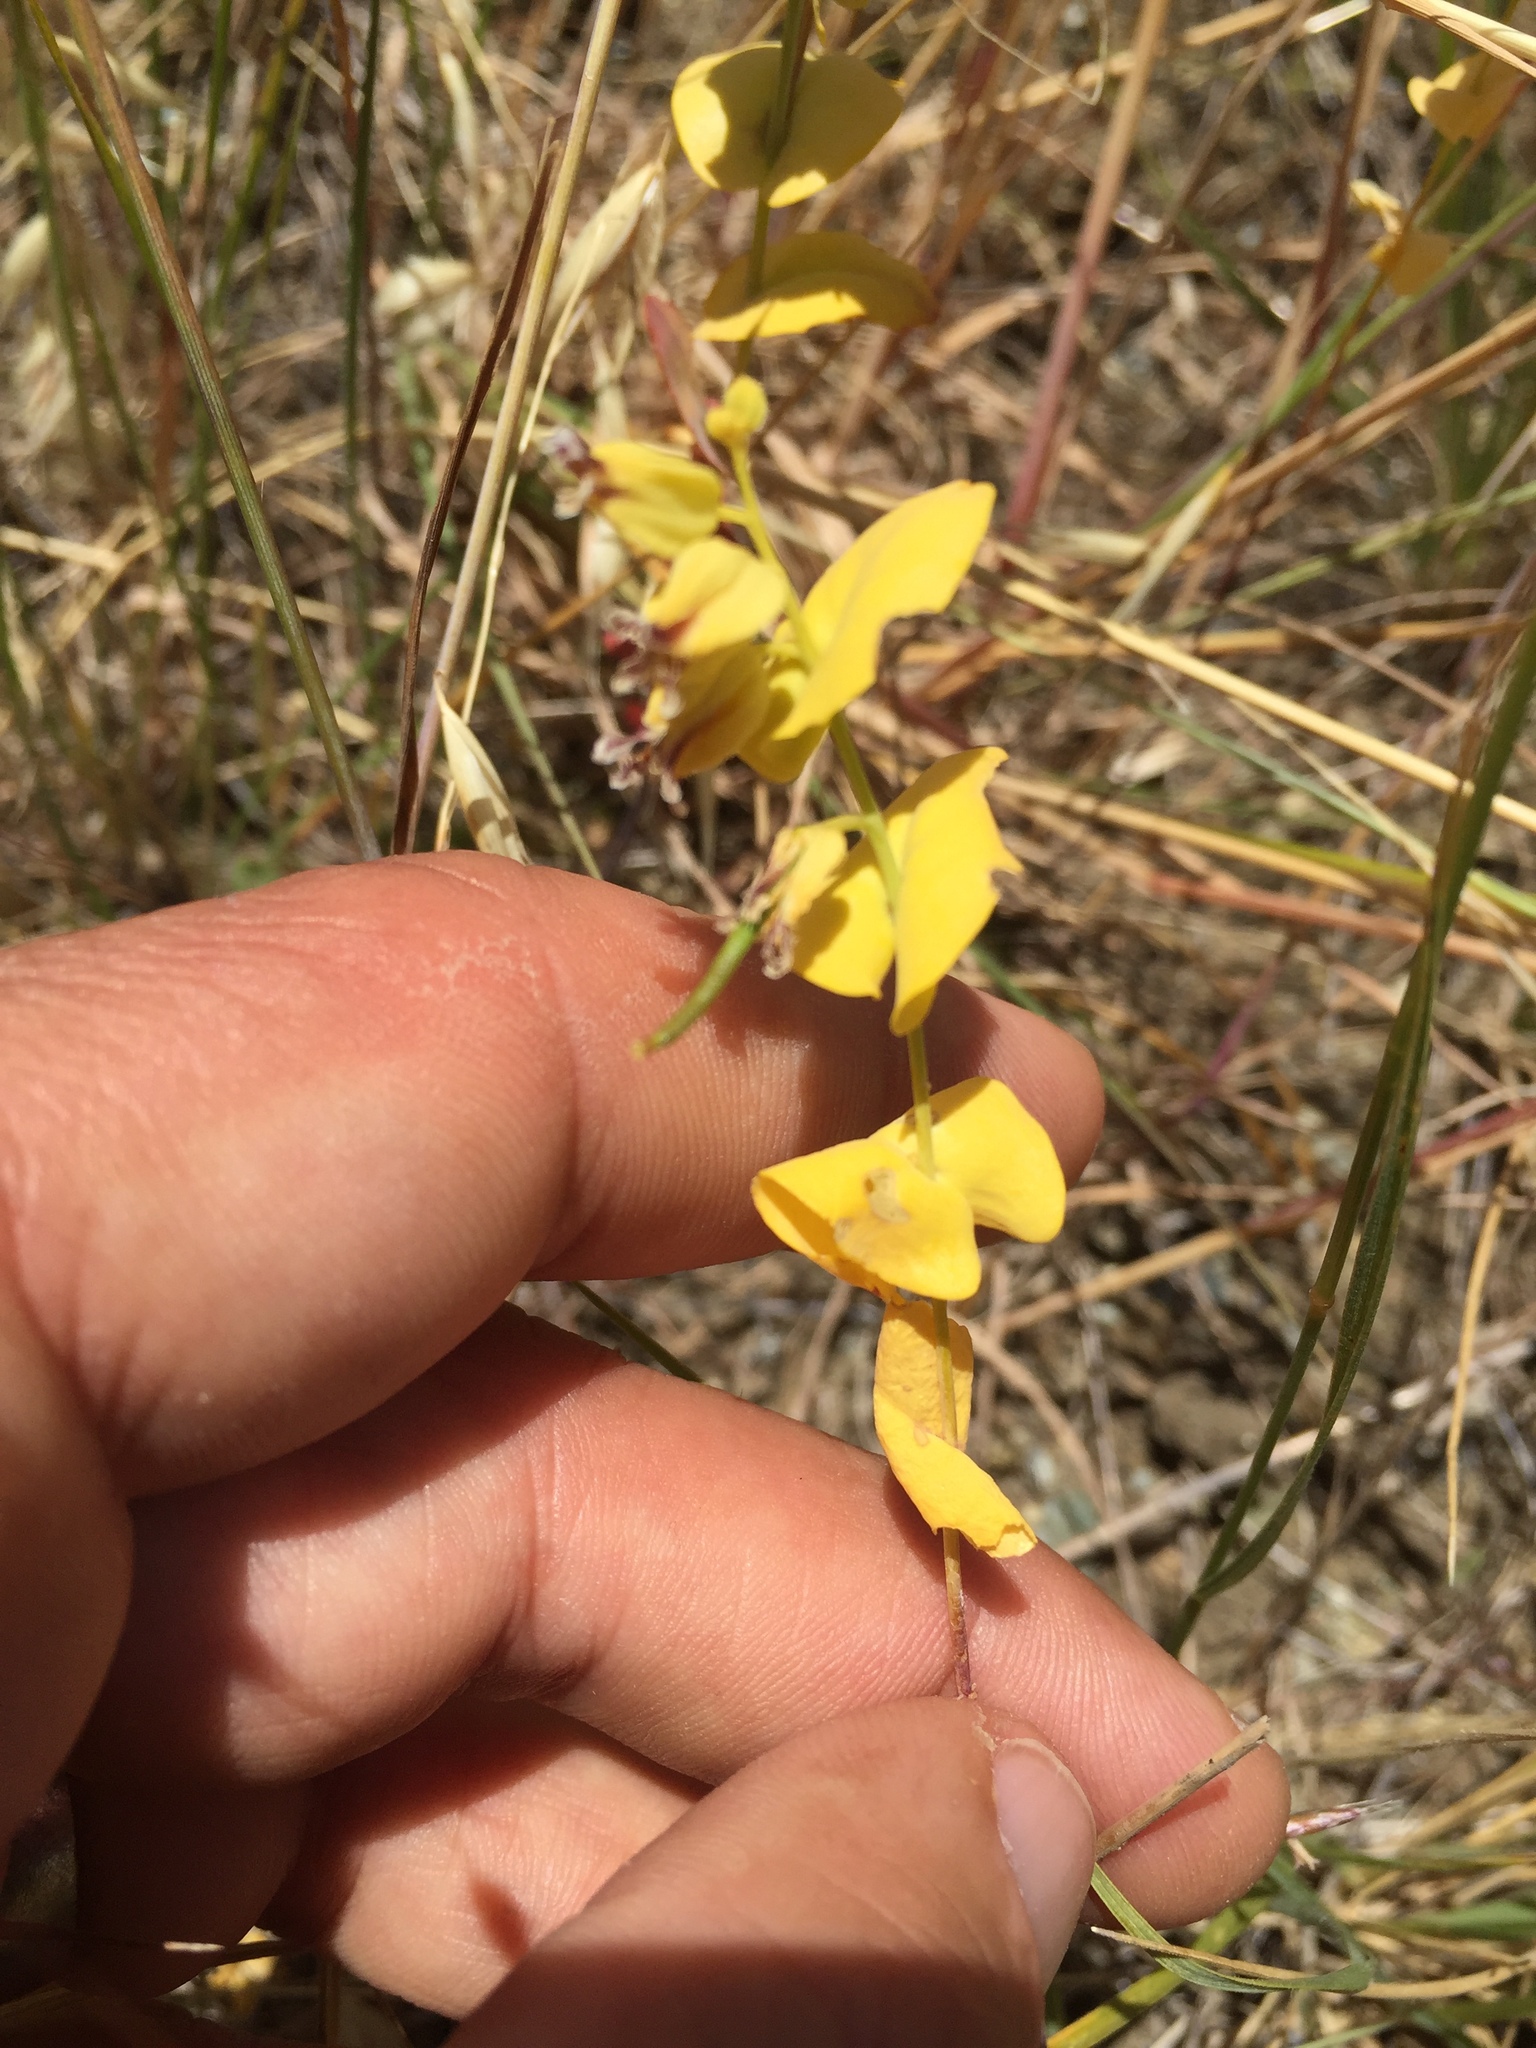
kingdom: Plantae
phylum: Tracheophyta
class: Magnoliopsida
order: Brassicales
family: Brassicaceae
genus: Streptanthus
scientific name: Streptanthus anomalus
